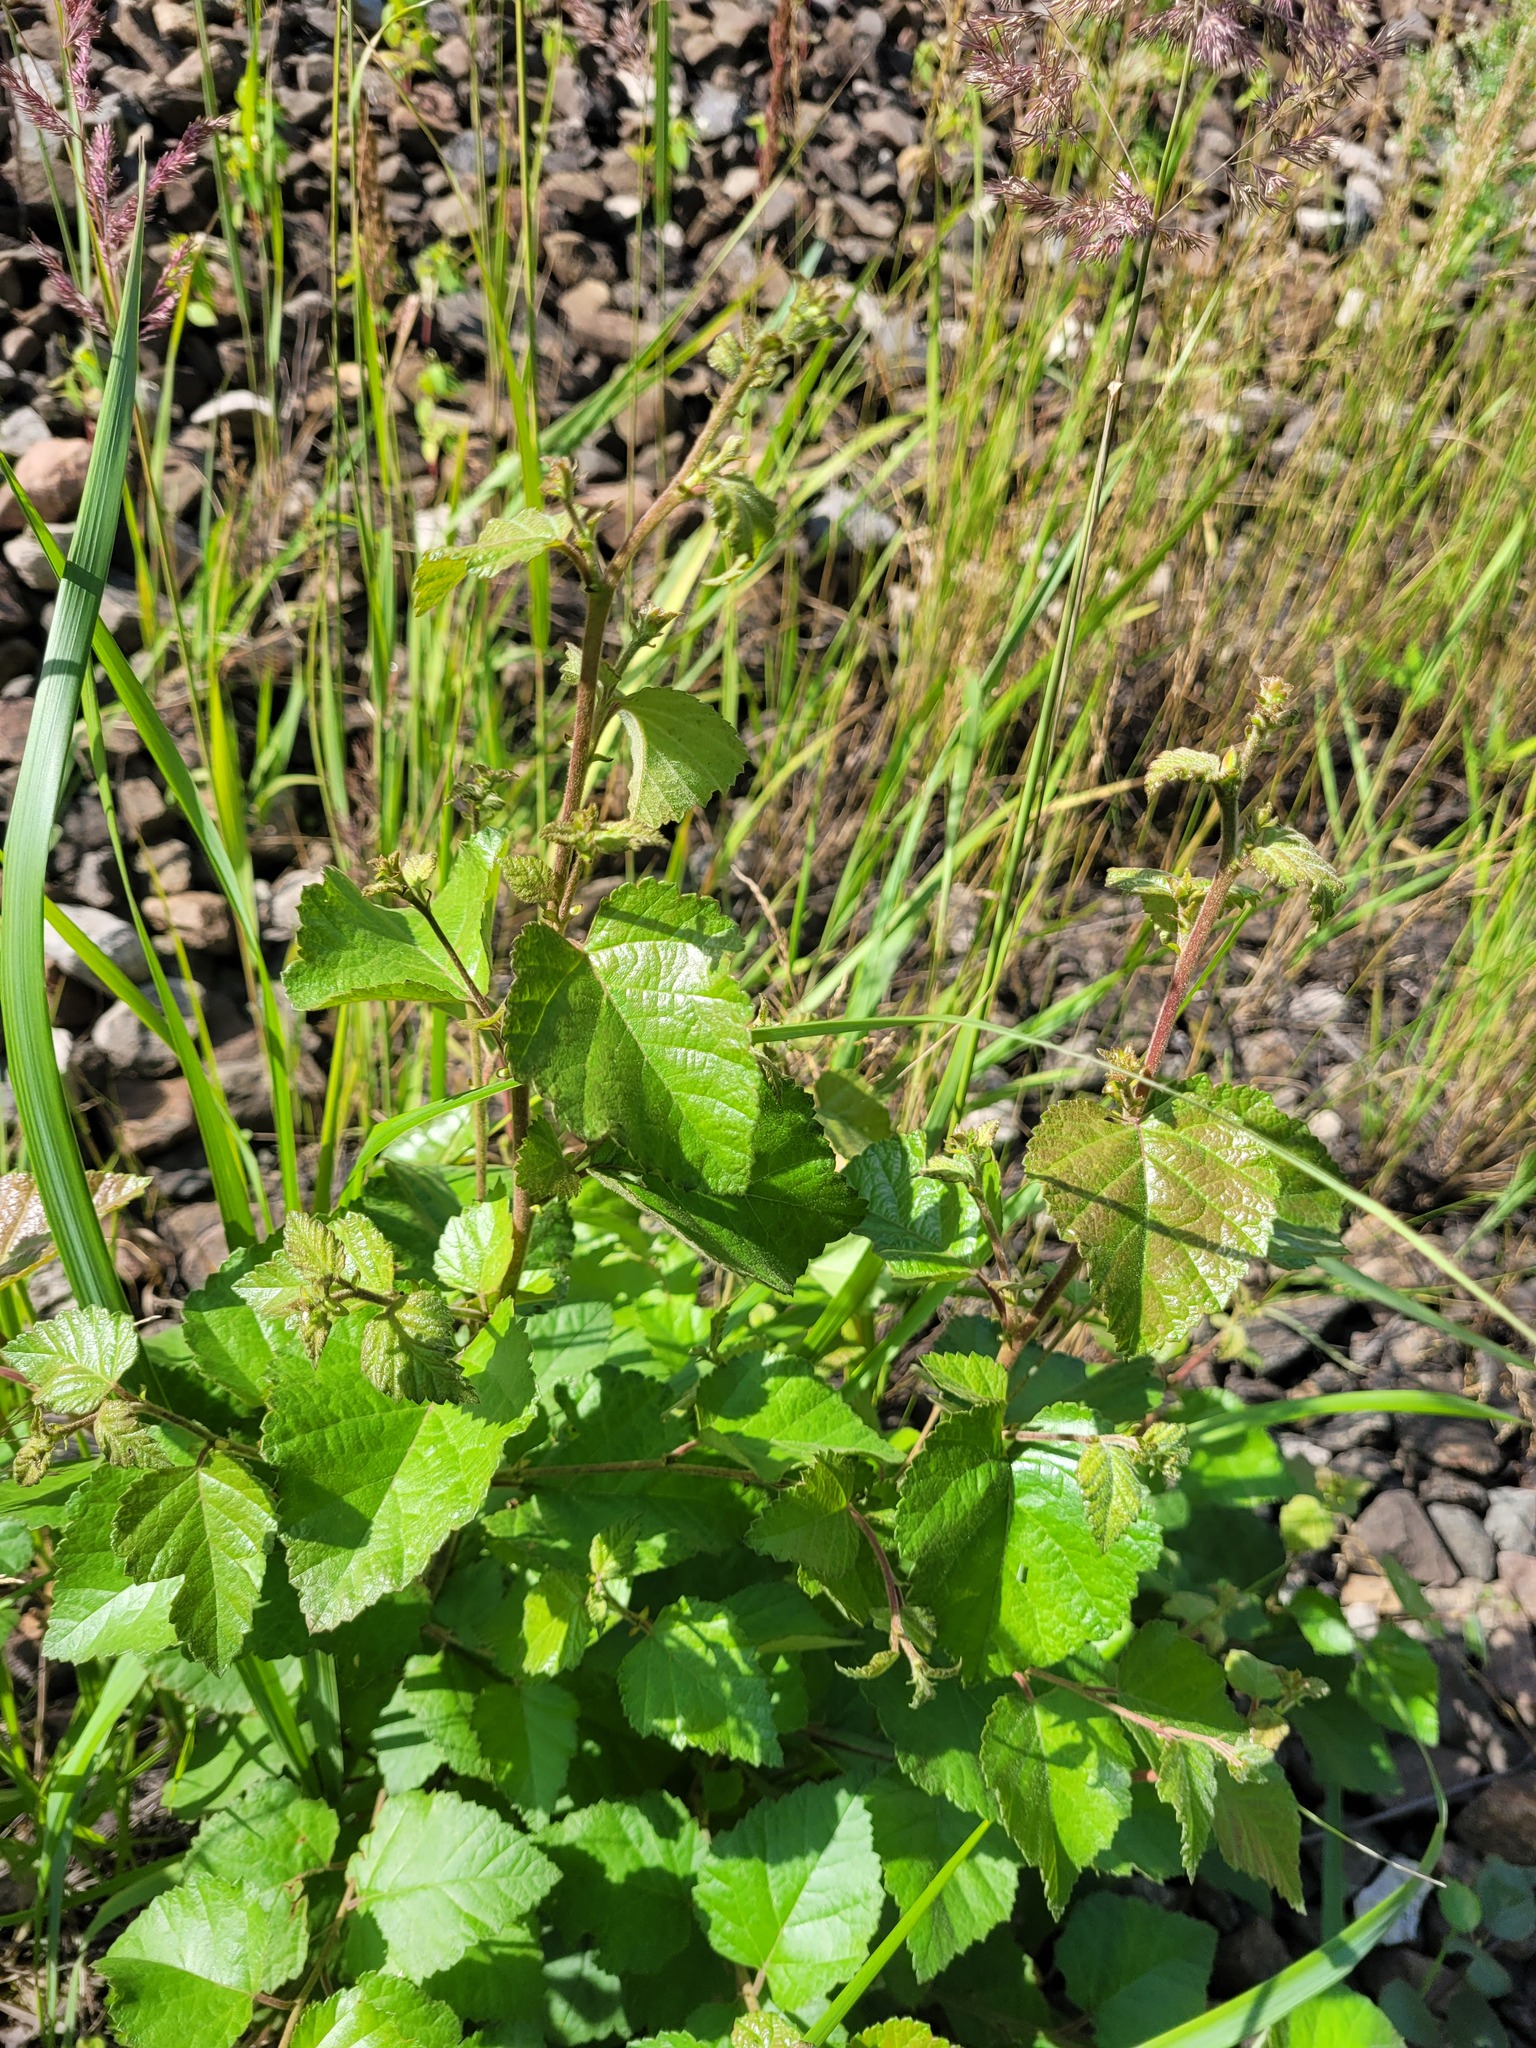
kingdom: Plantae
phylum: Tracheophyta
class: Magnoliopsida
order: Fagales
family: Betulaceae
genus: Betula
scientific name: Betula pubescens
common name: Downy birch
